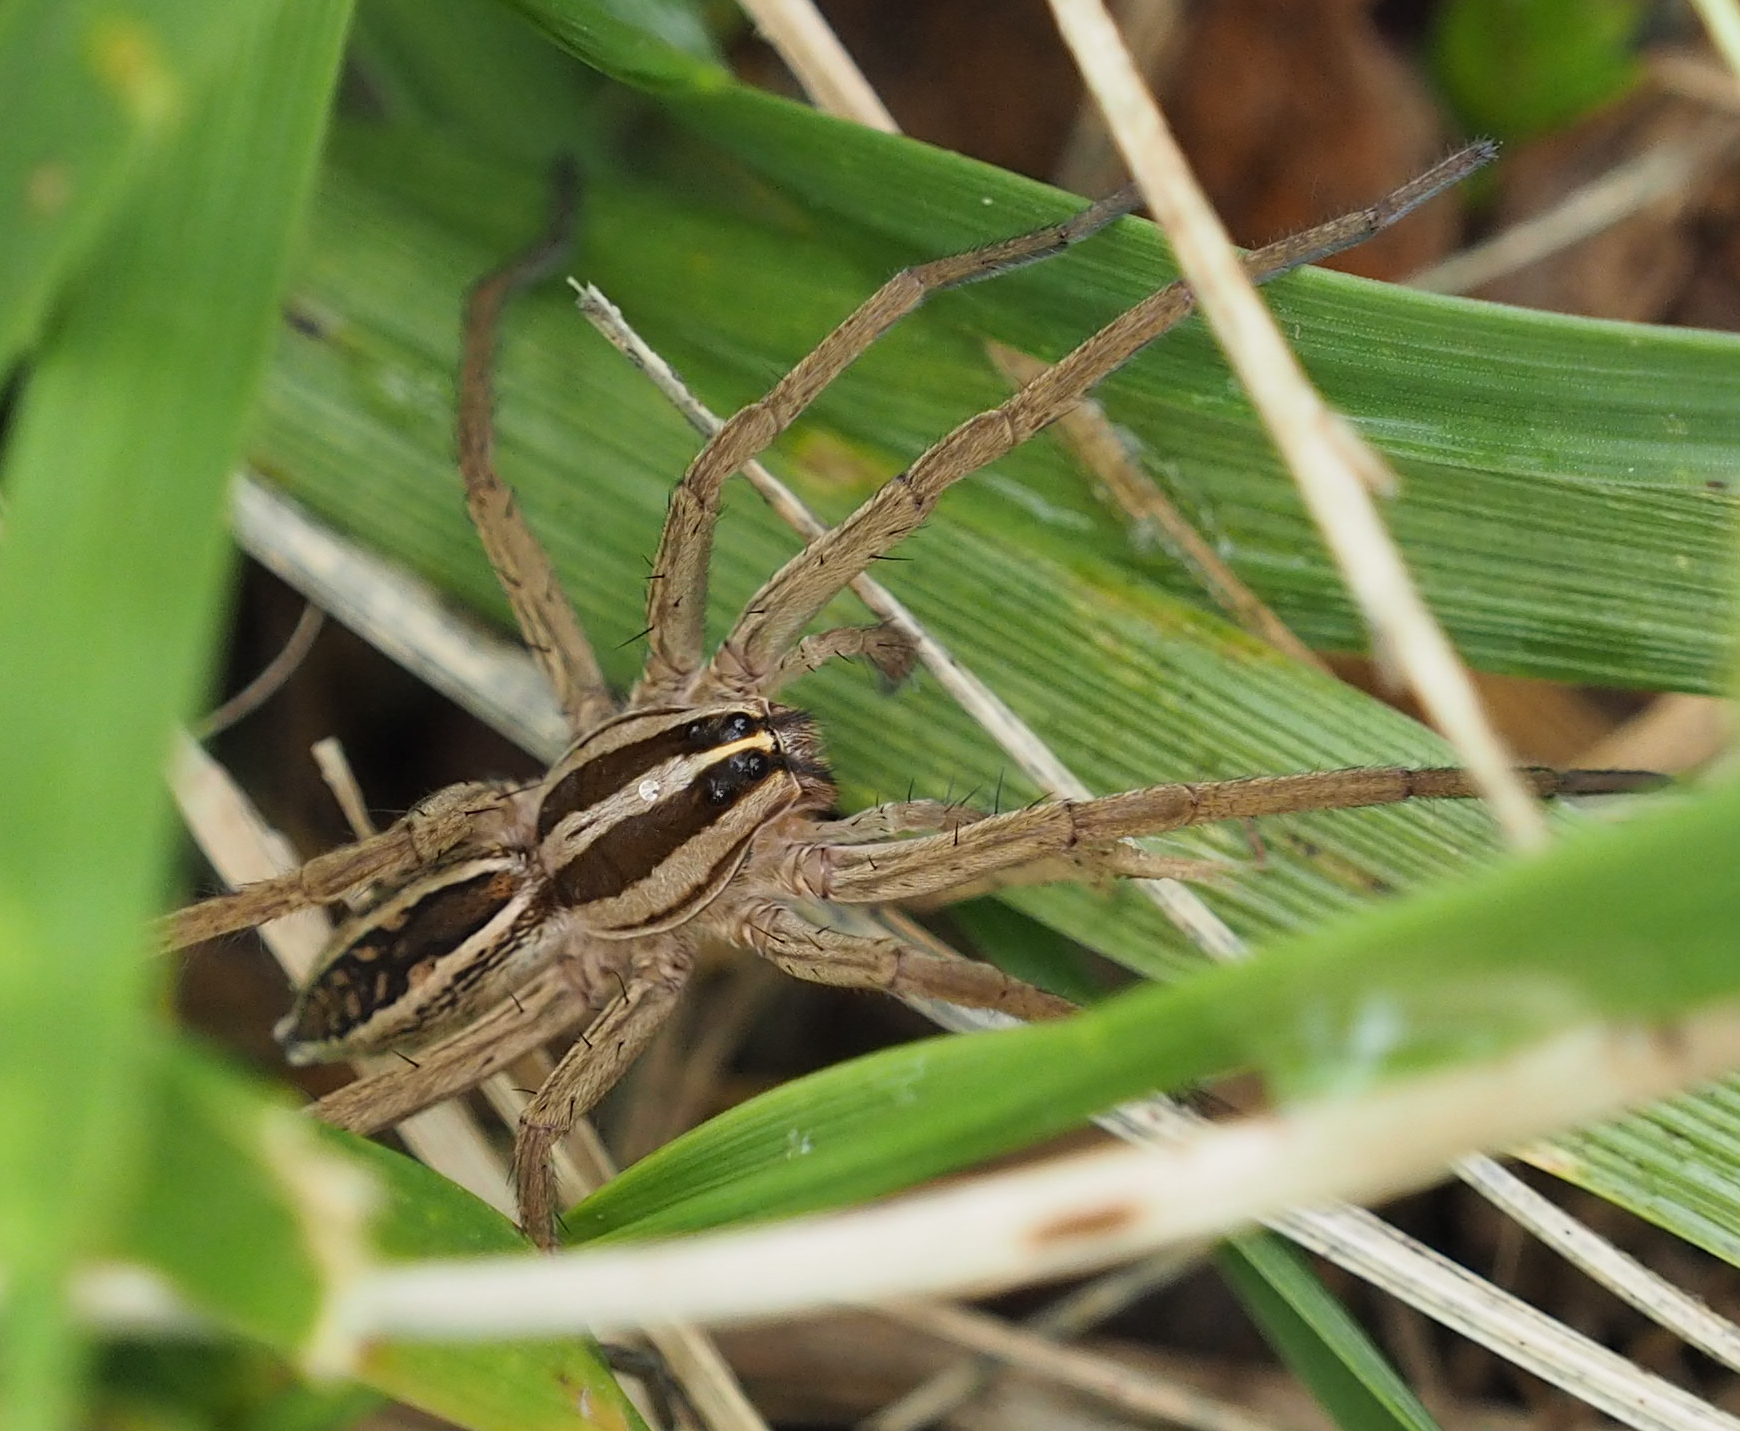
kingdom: Animalia
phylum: Arthropoda
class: Arachnida
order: Araneae
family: Lycosidae
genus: Rabidosa
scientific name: Rabidosa rabida
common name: Rabid wolf spider
